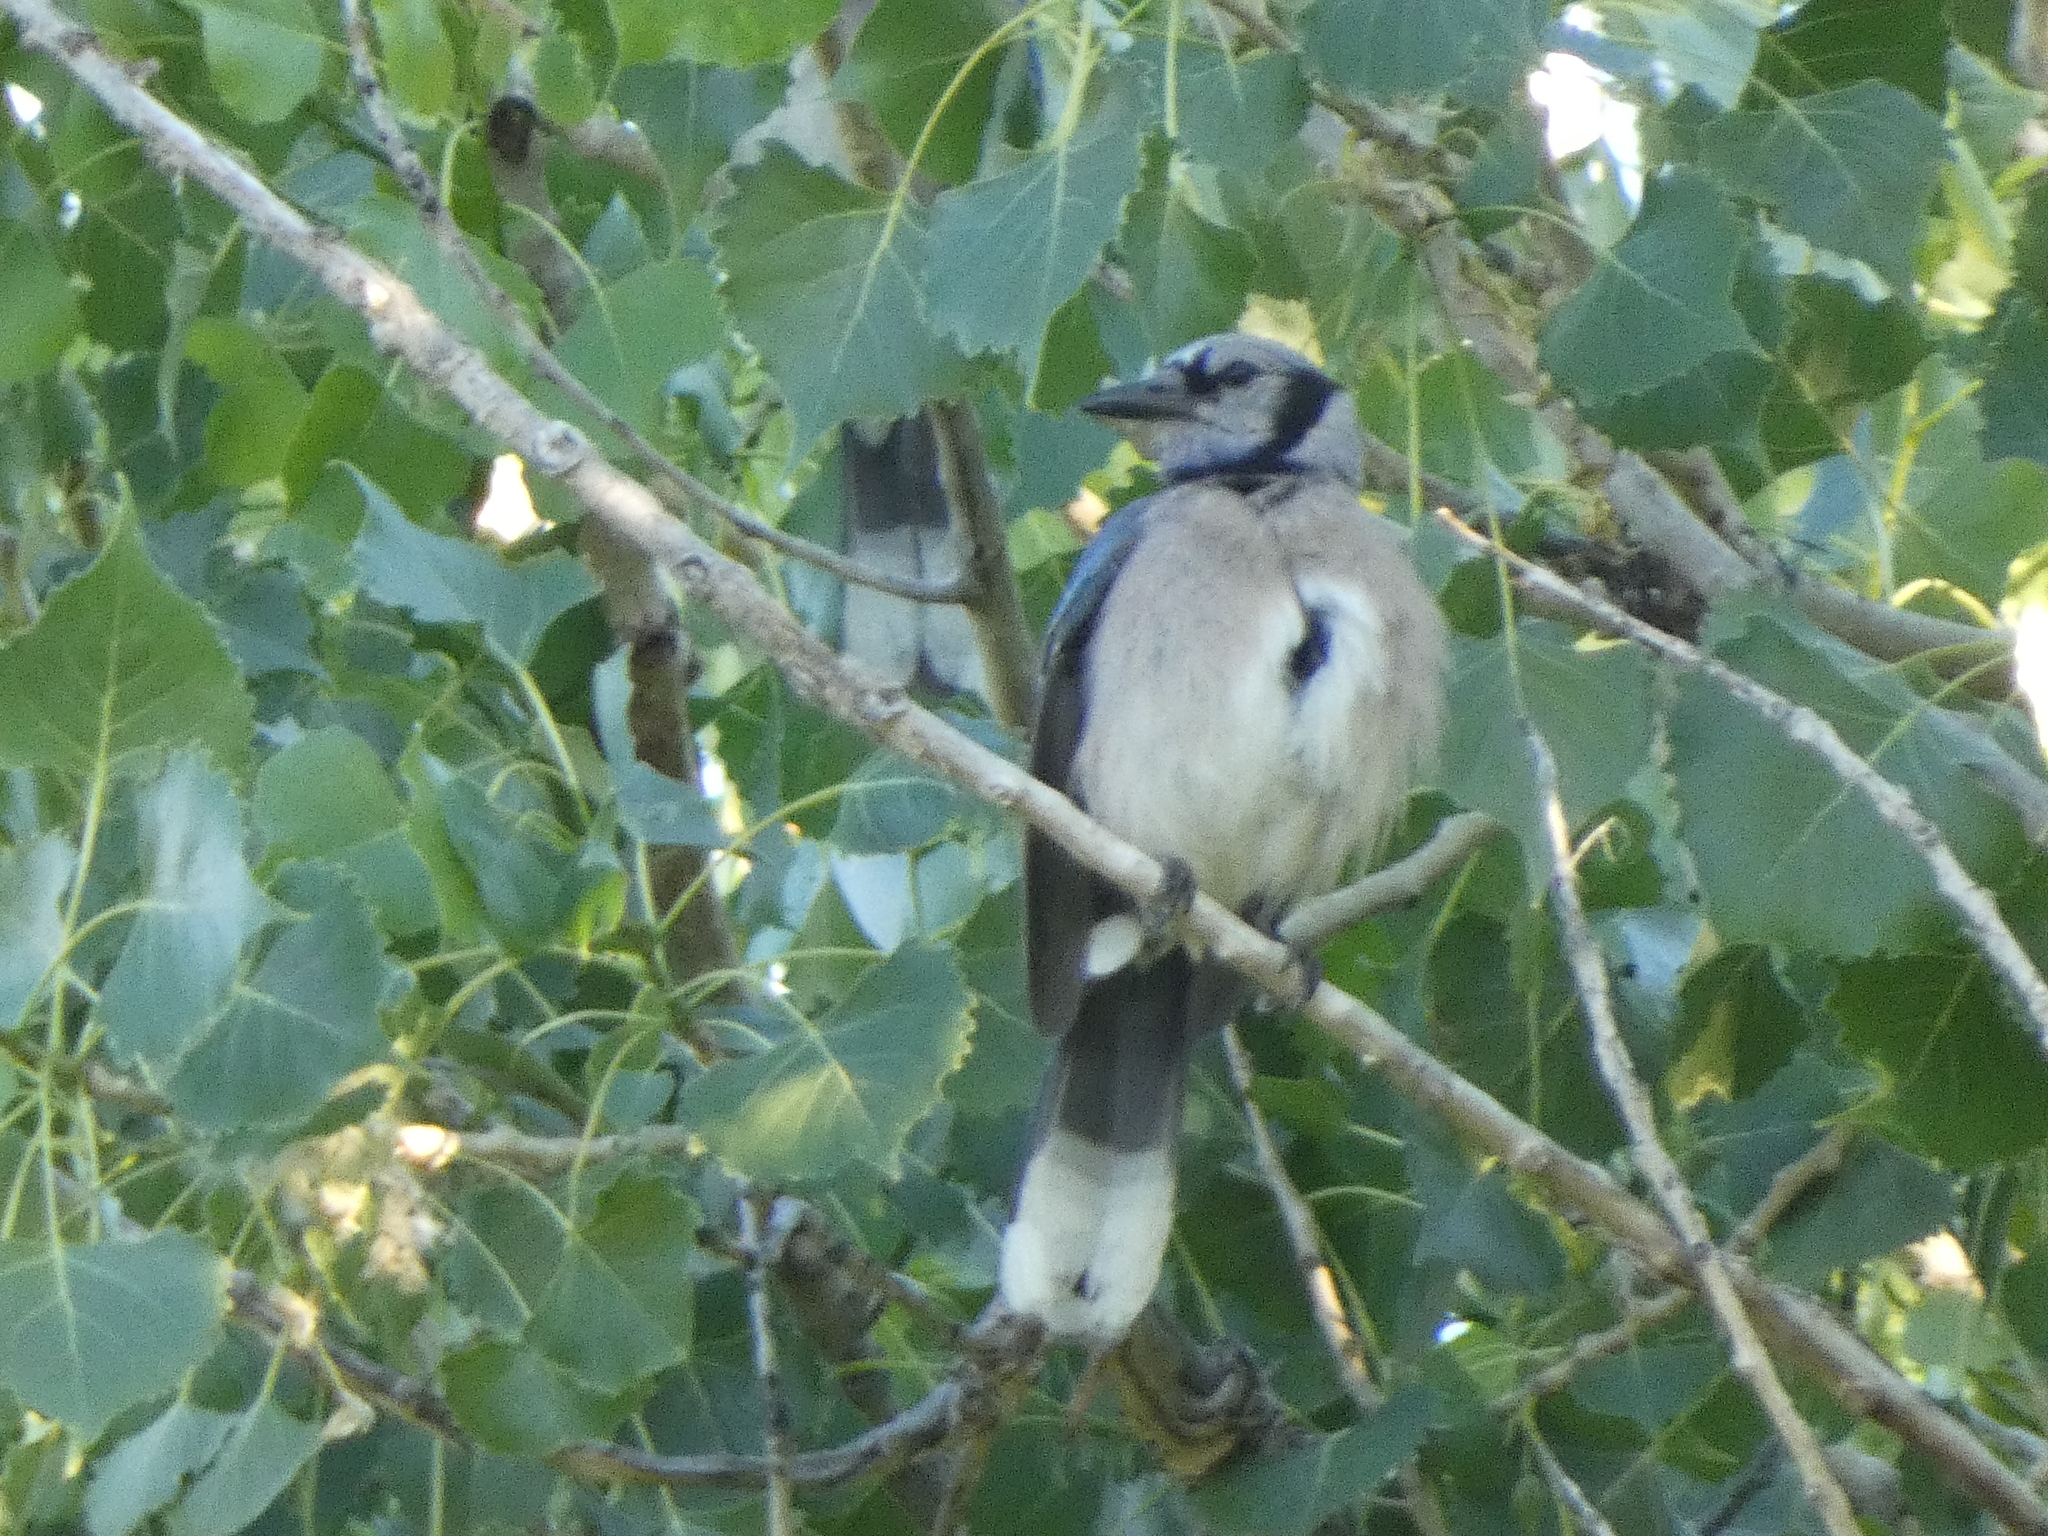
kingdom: Animalia
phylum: Chordata
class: Aves
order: Passeriformes
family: Corvidae
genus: Cyanocitta
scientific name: Cyanocitta cristata
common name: Blue jay
